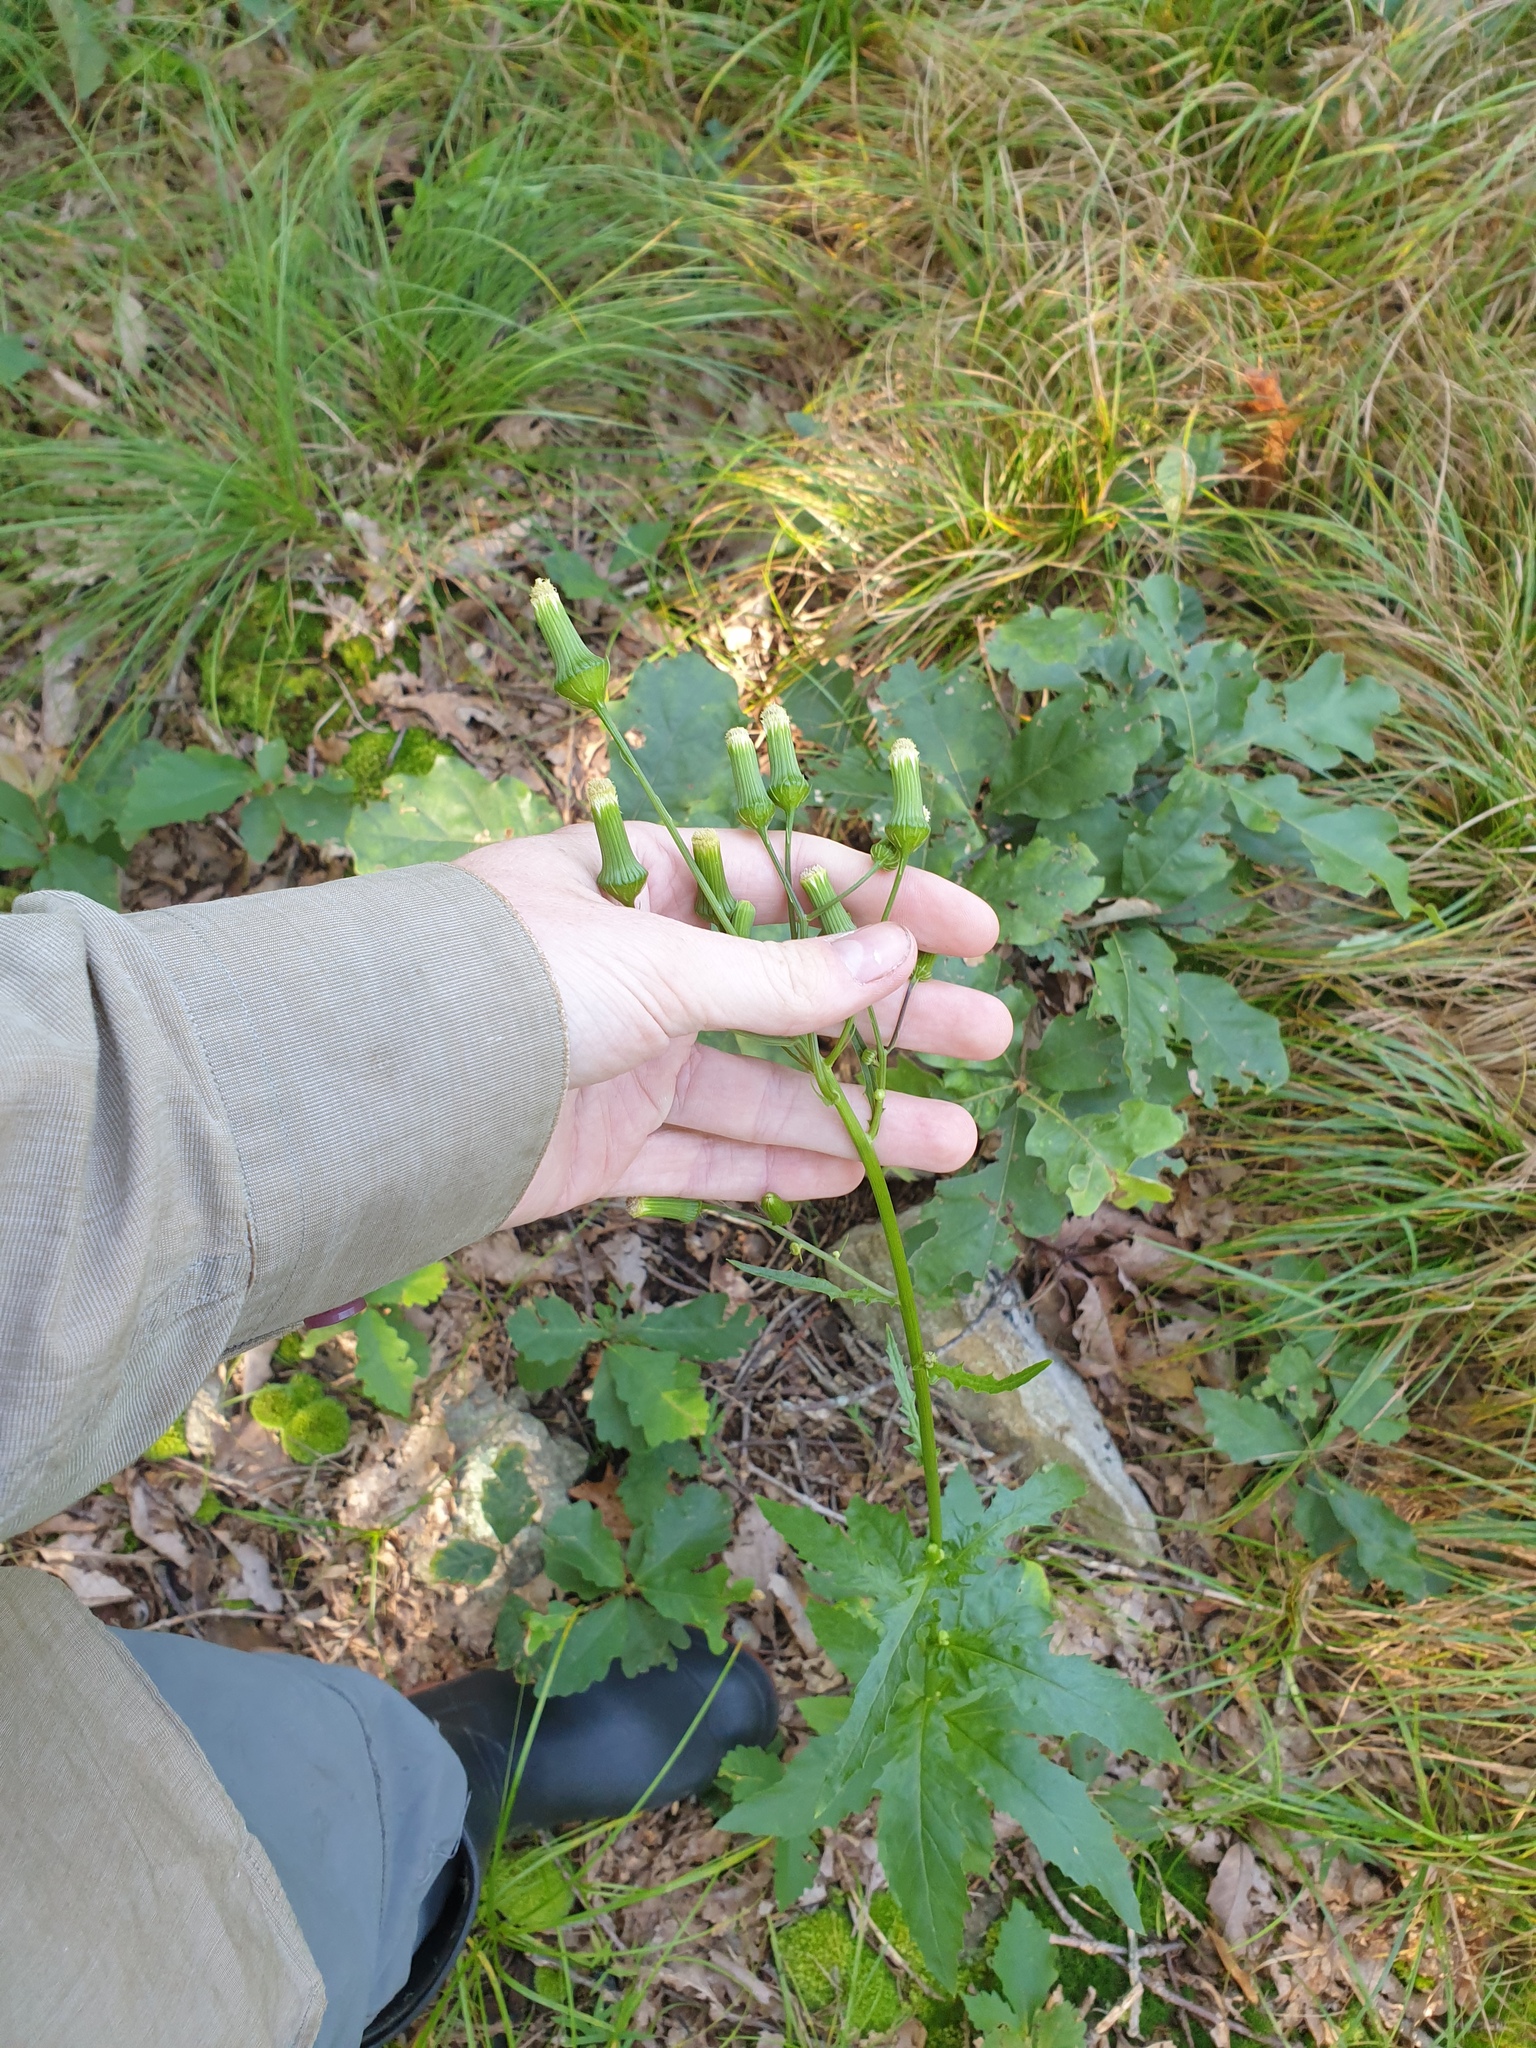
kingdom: Plantae
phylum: Tracheophyta
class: Magnoliopsida
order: Asterales
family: Asteraceae
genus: Erechtites
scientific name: Erechtites hieraciifolius
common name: American burnweed
